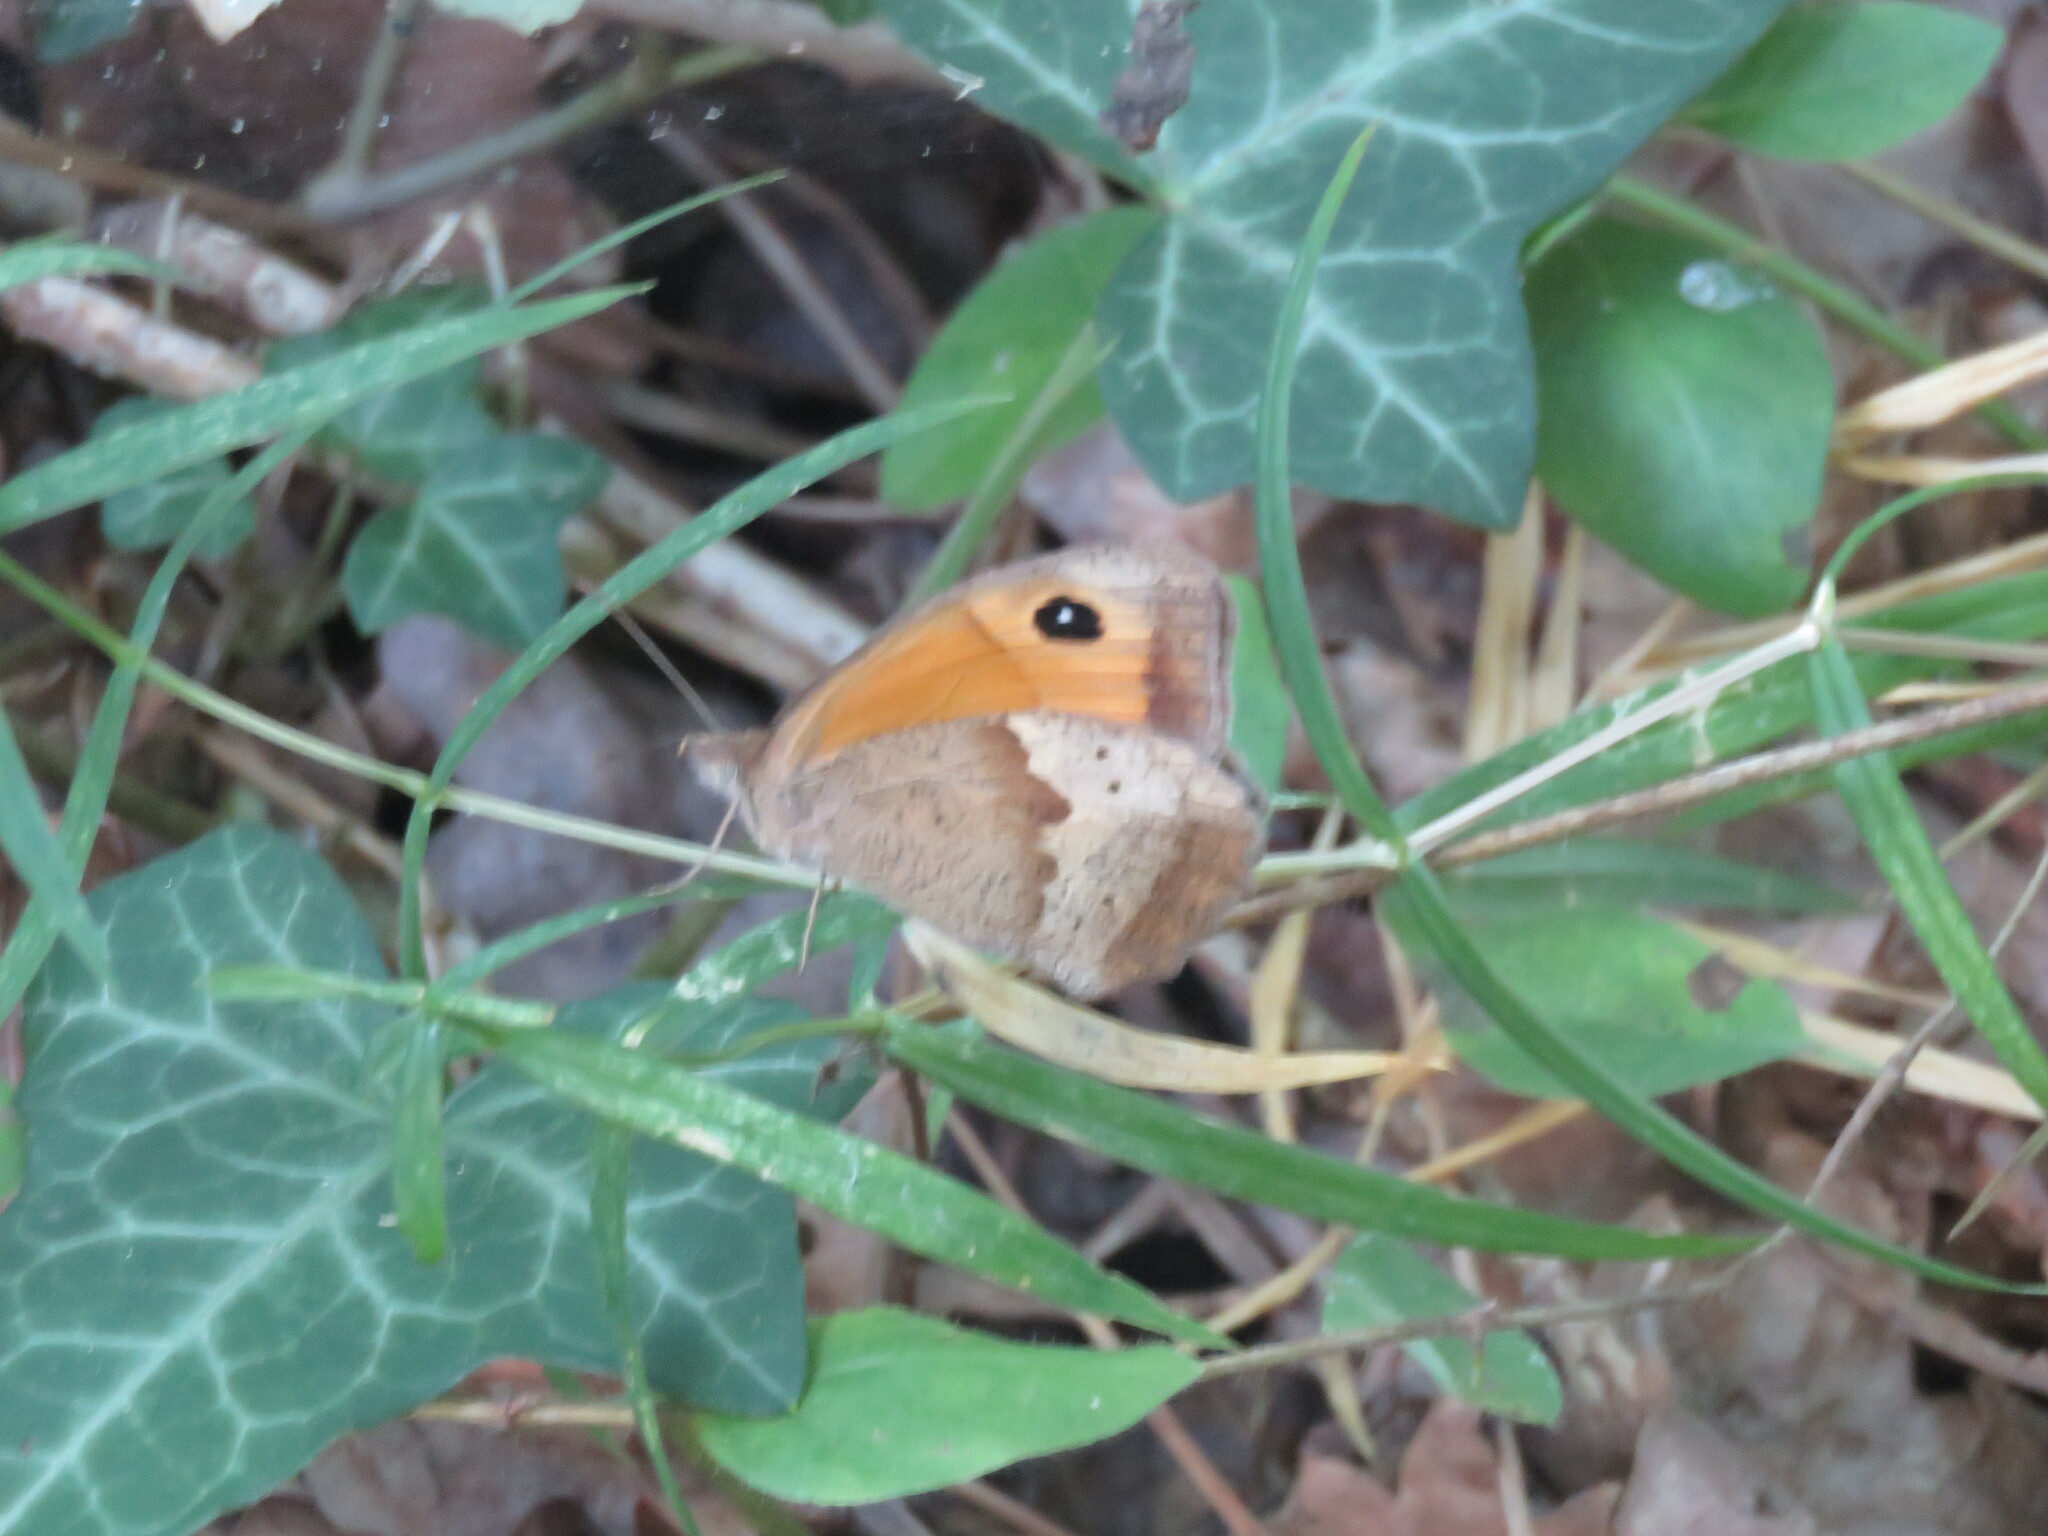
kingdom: Animalia
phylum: Arthropoda
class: Insecta
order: Lepidoptera
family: Nymphalidae
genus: Maniola
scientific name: Maniola jurtina
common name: Meadow brown
